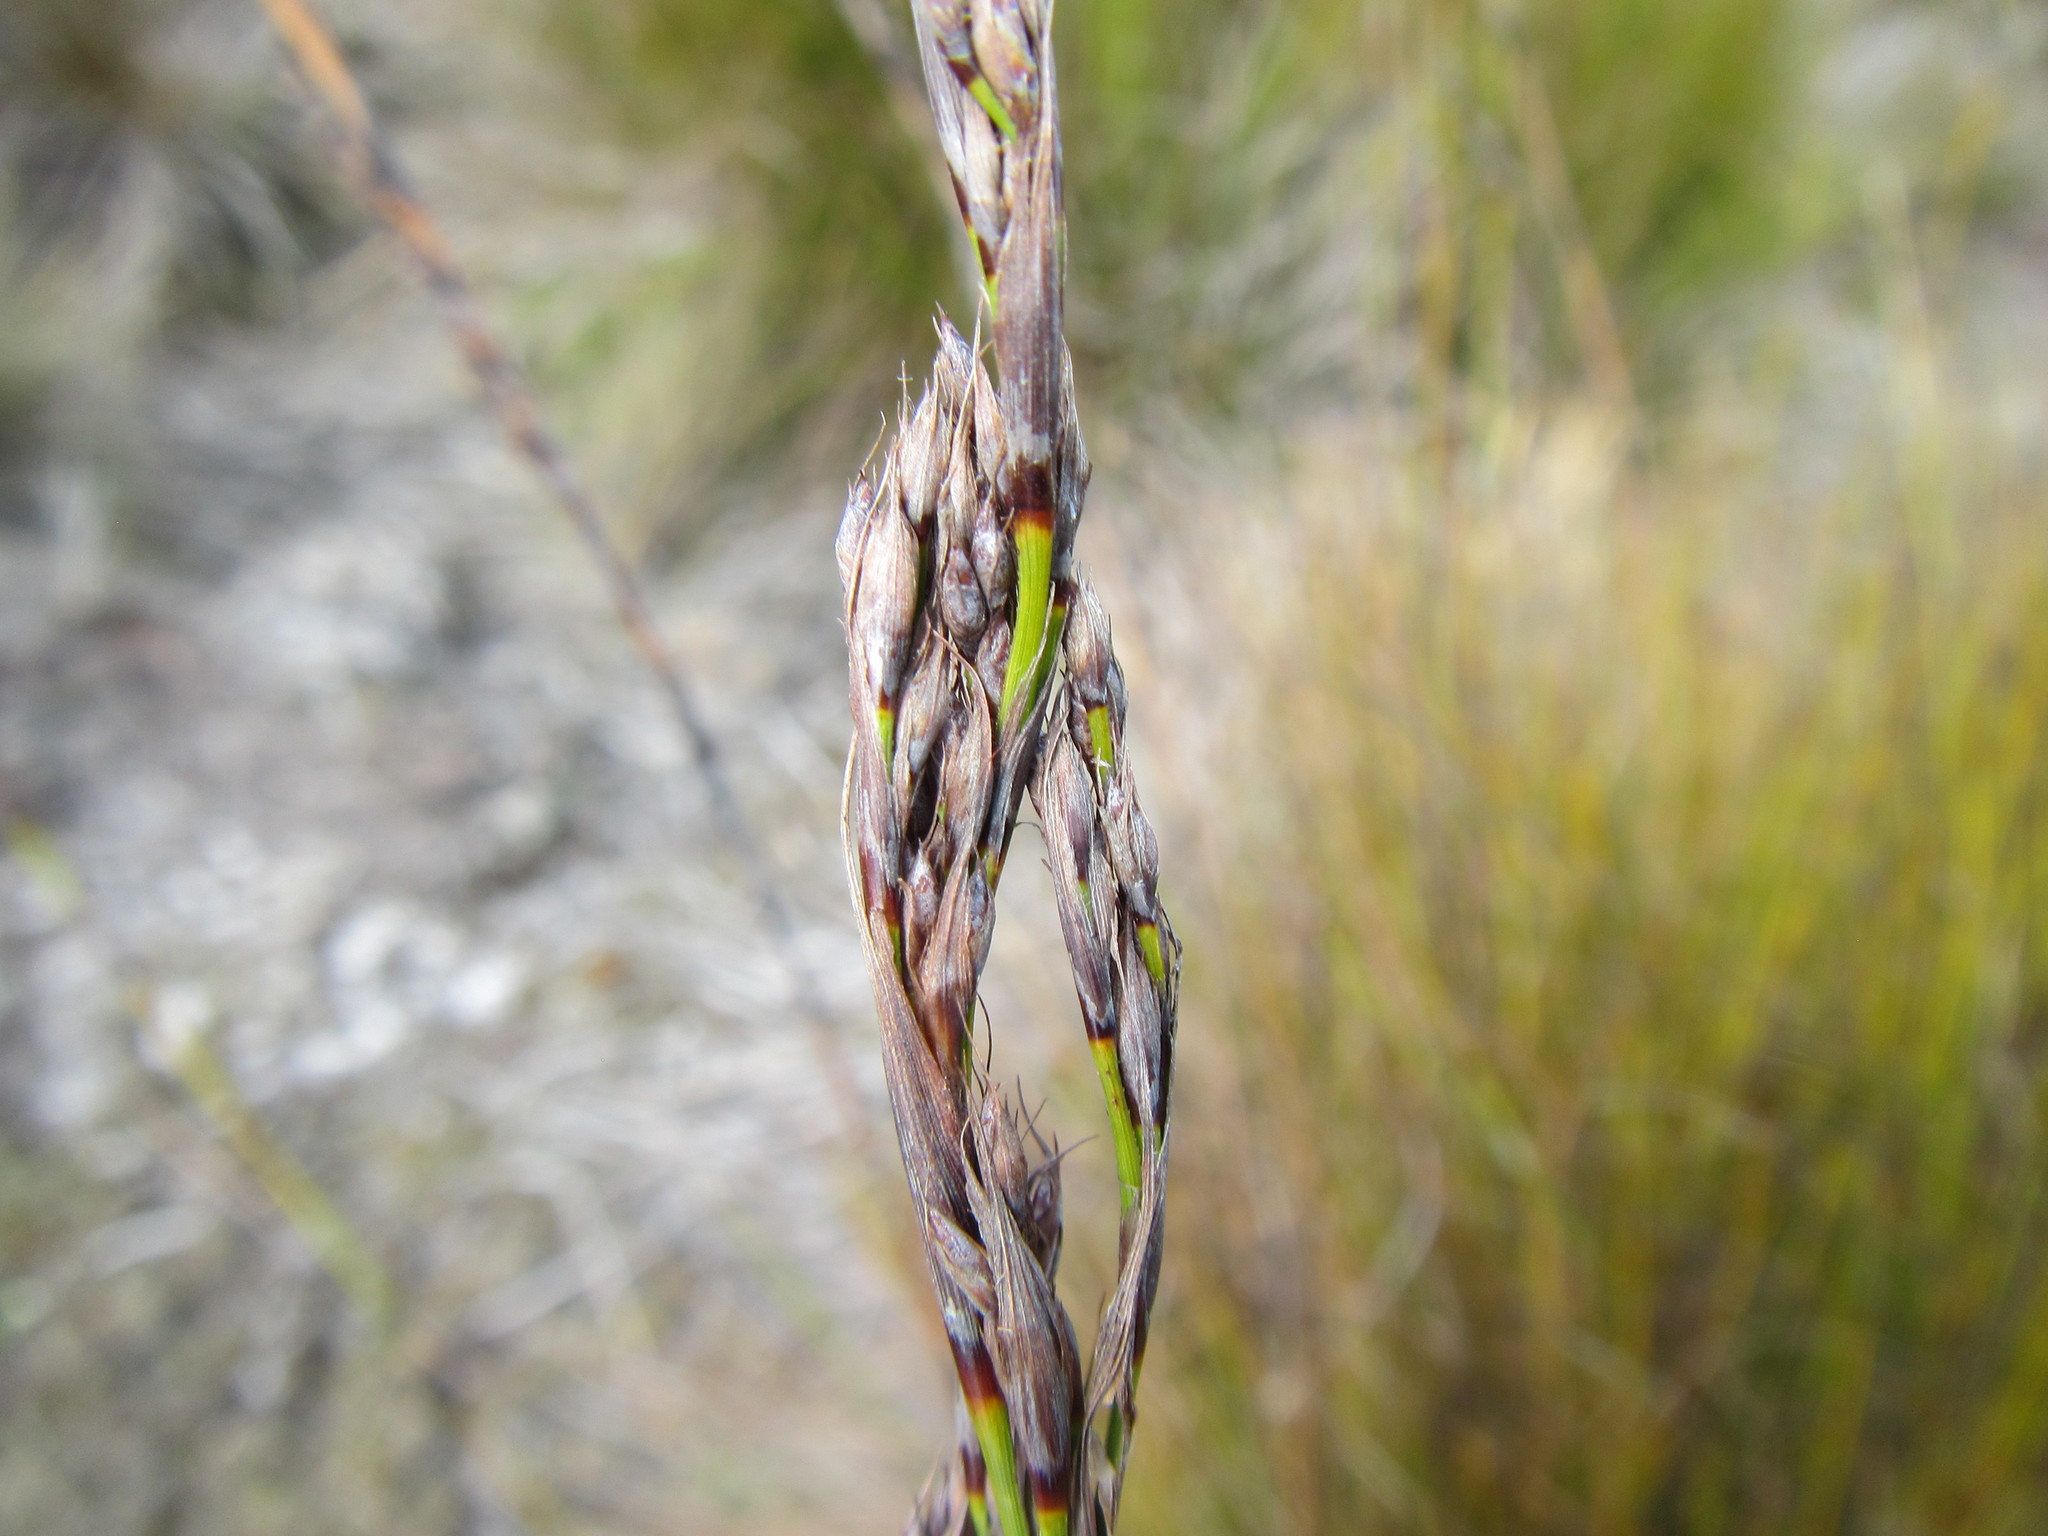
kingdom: Plantae
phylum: Tracheophyta
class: Liliopsida
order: Poales
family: Cyperaceae
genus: Tetraria
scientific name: Tetraria capillacea
